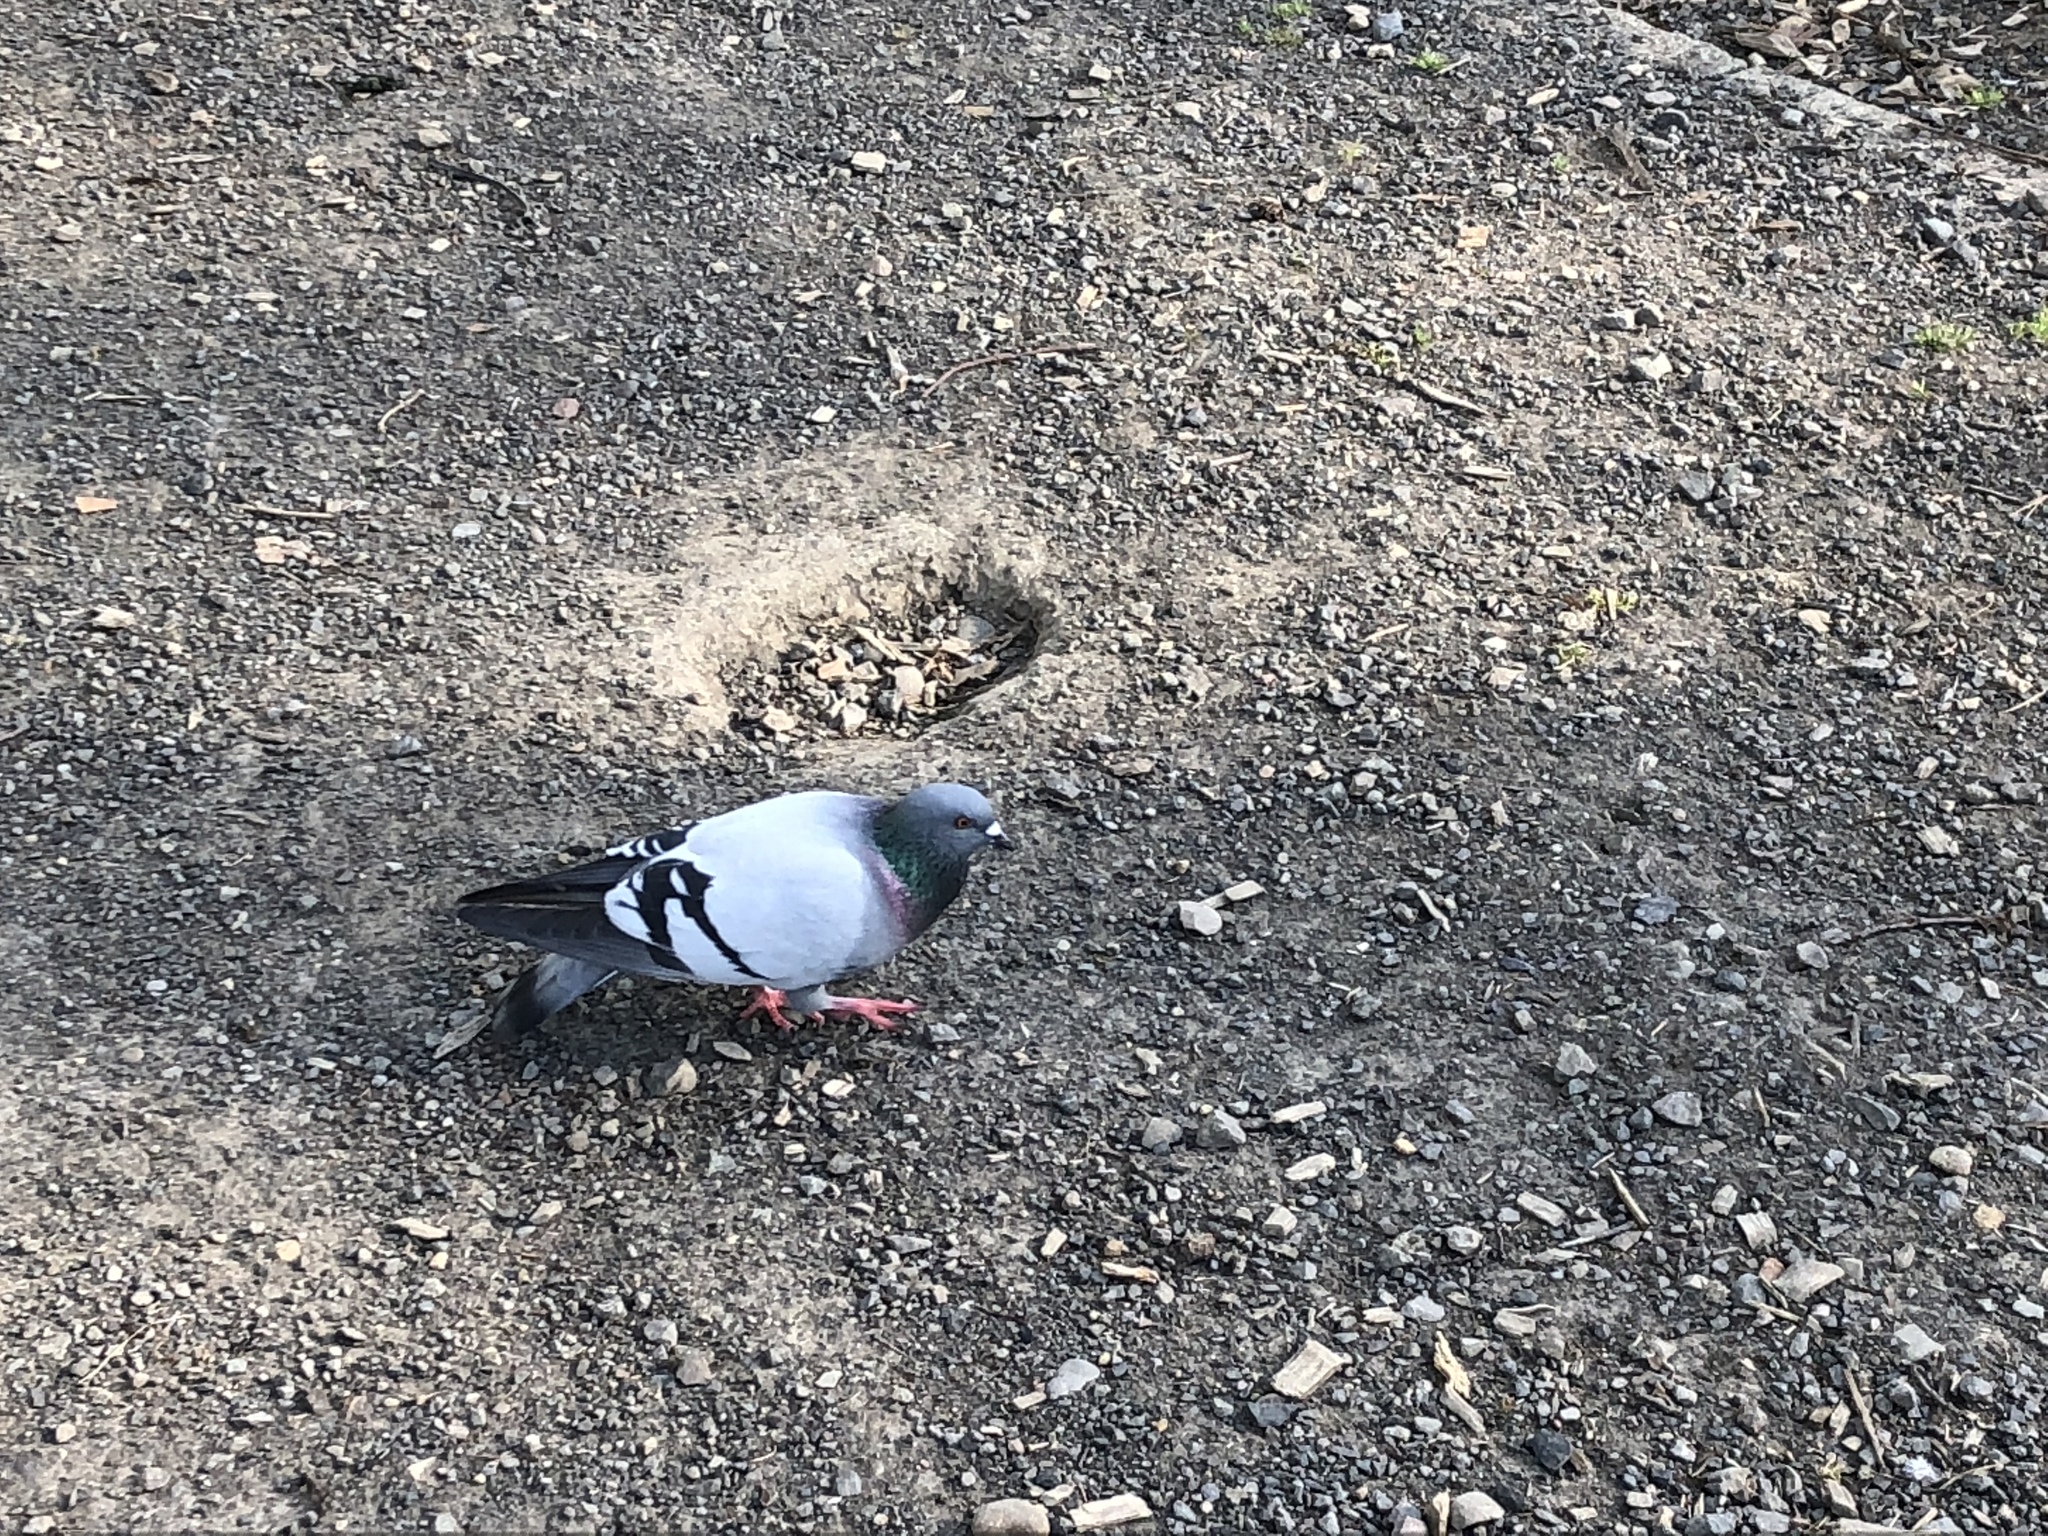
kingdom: Animalia
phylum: Chordata
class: Aves
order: Columbiformes
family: Columbidae
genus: Columba
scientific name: Columba livia
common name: Rock pigeon
